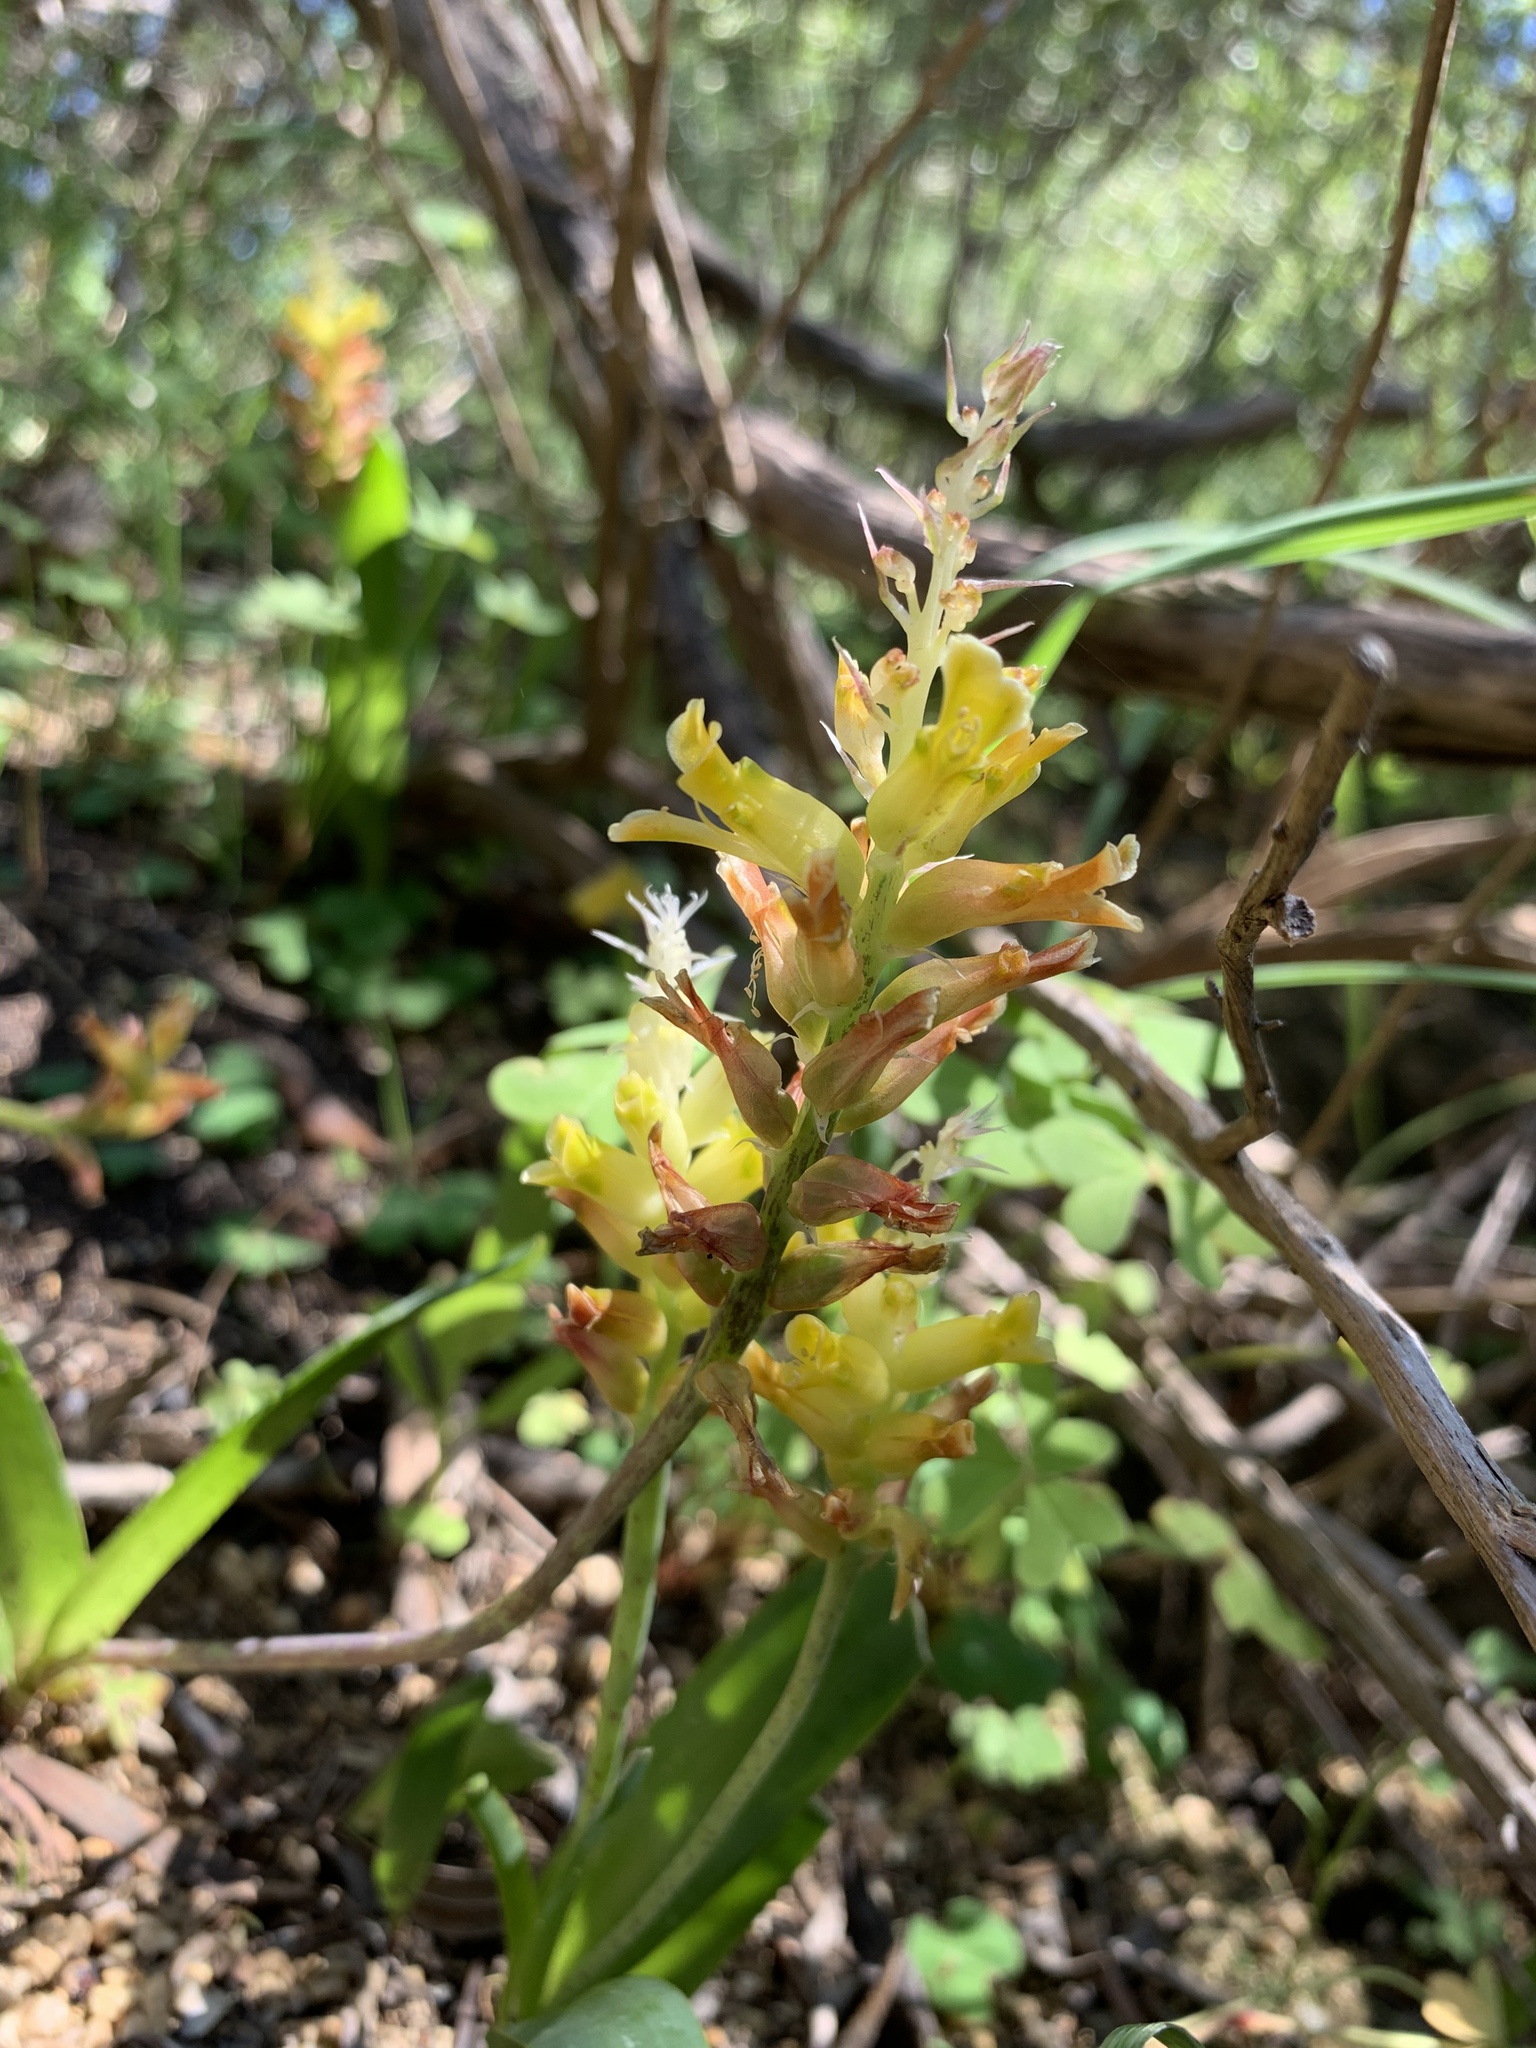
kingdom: Plantae
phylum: Tracheophyta
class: Liliopsida
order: Asparagales
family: Asparagaceae
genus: Lachenalia
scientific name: Lachenalia orchioides
